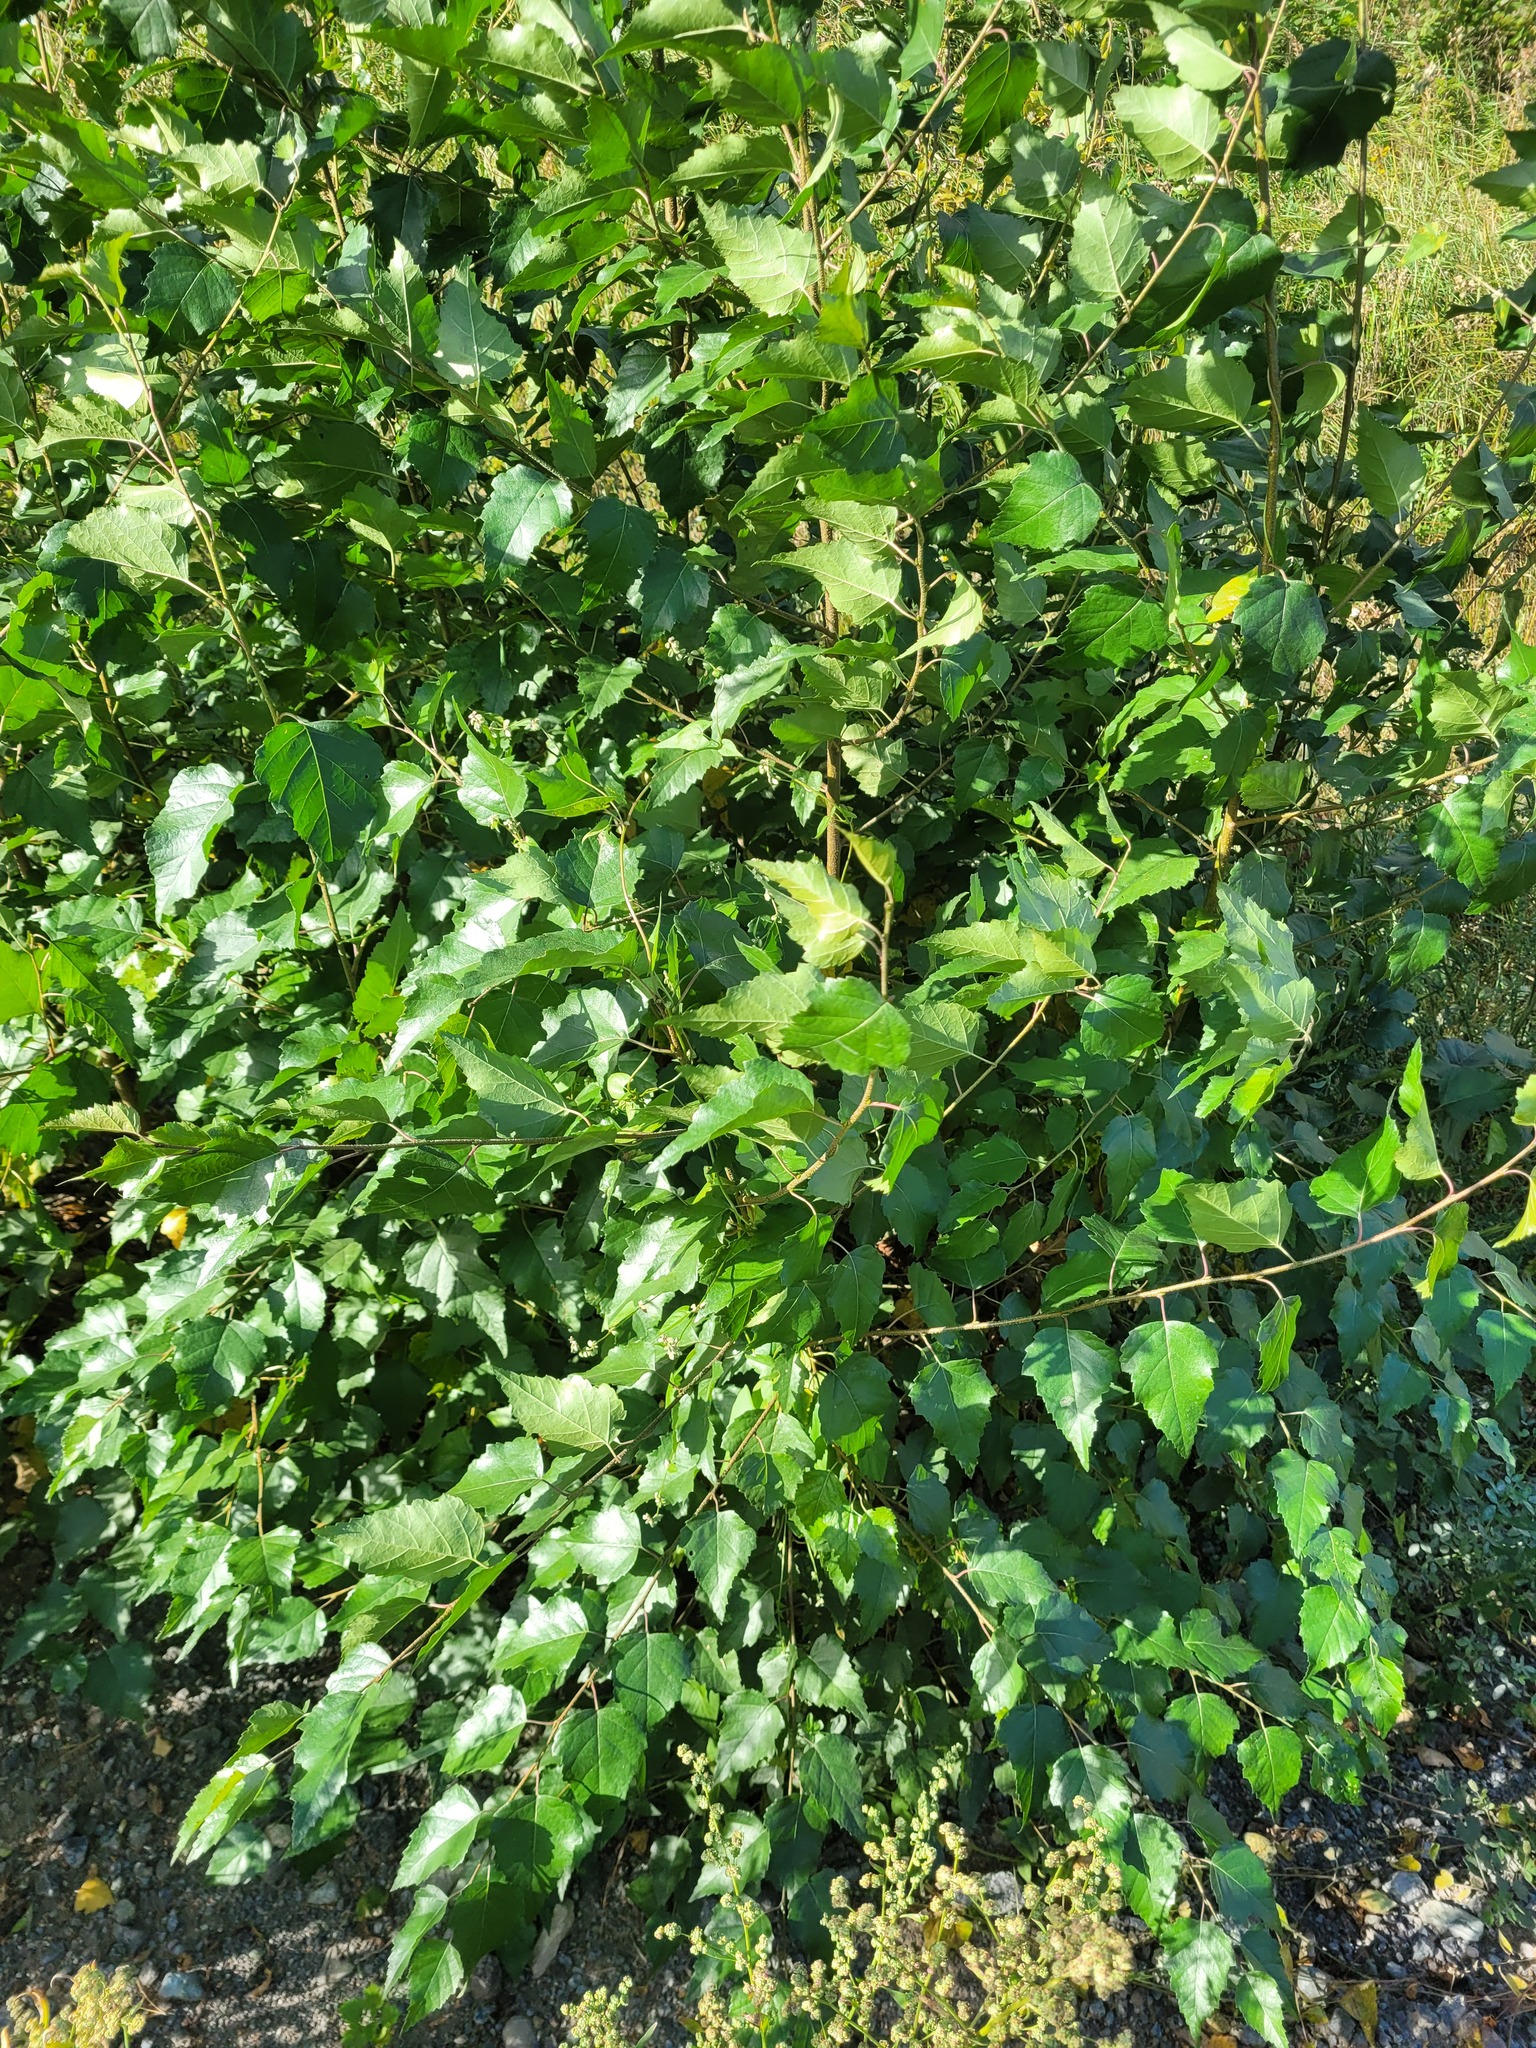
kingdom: Plantae
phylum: Tracheophyta
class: Magnoliopsida
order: Fagales
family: Betulaceae
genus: Betula
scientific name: Betula pendula
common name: Silver birch
